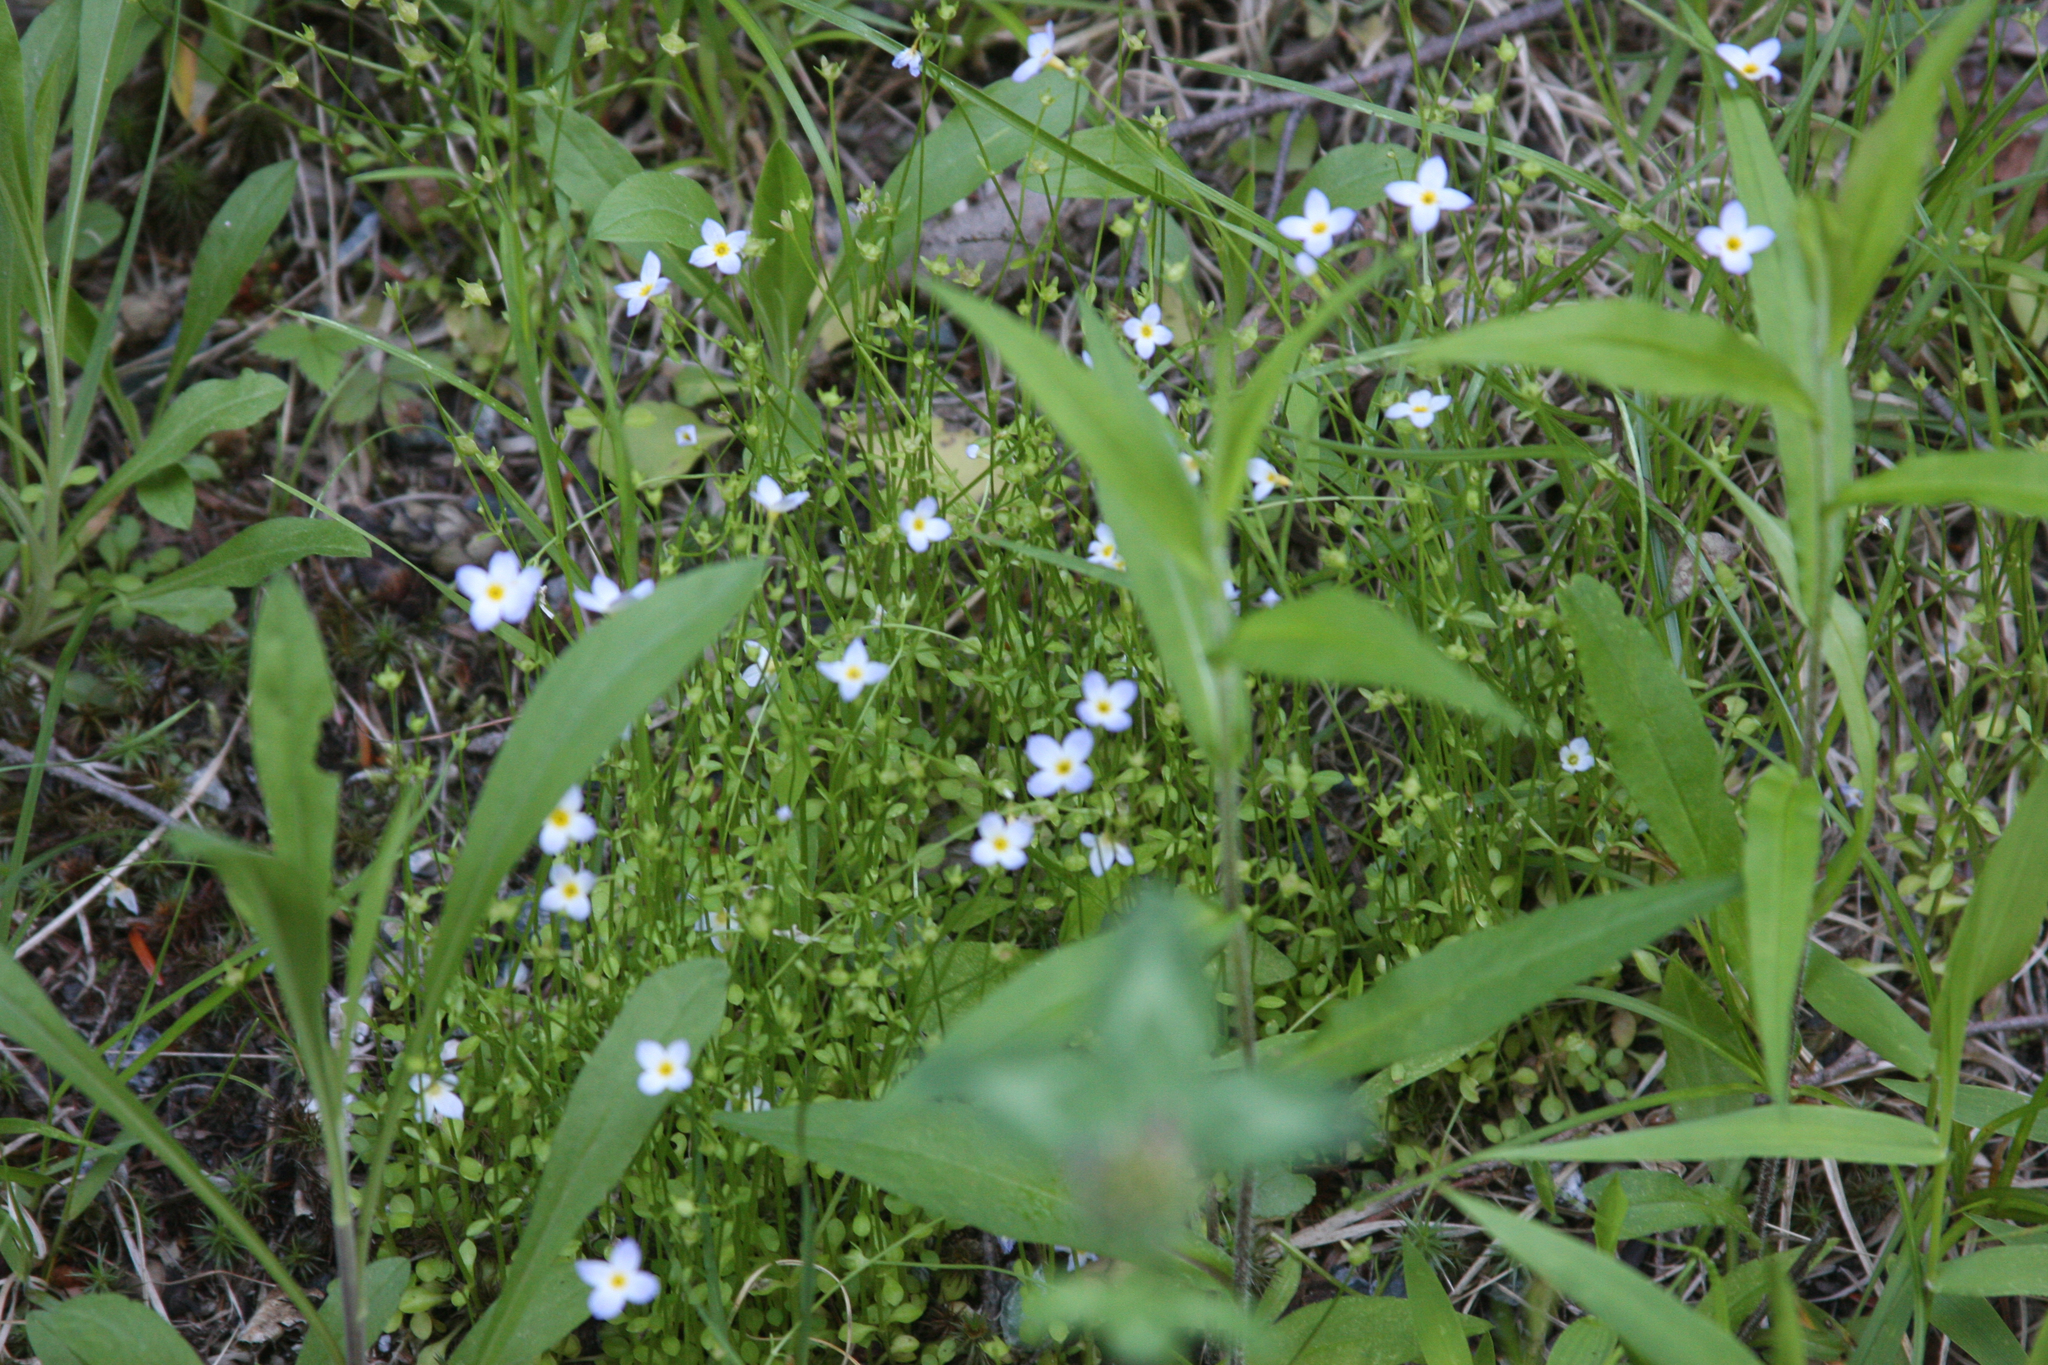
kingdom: Plantae
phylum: Tracheophyta
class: Magnoliopsida
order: Gentianales
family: Rubiaceae
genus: Houstonia
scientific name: Houstonia caerulea
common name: Bluets
